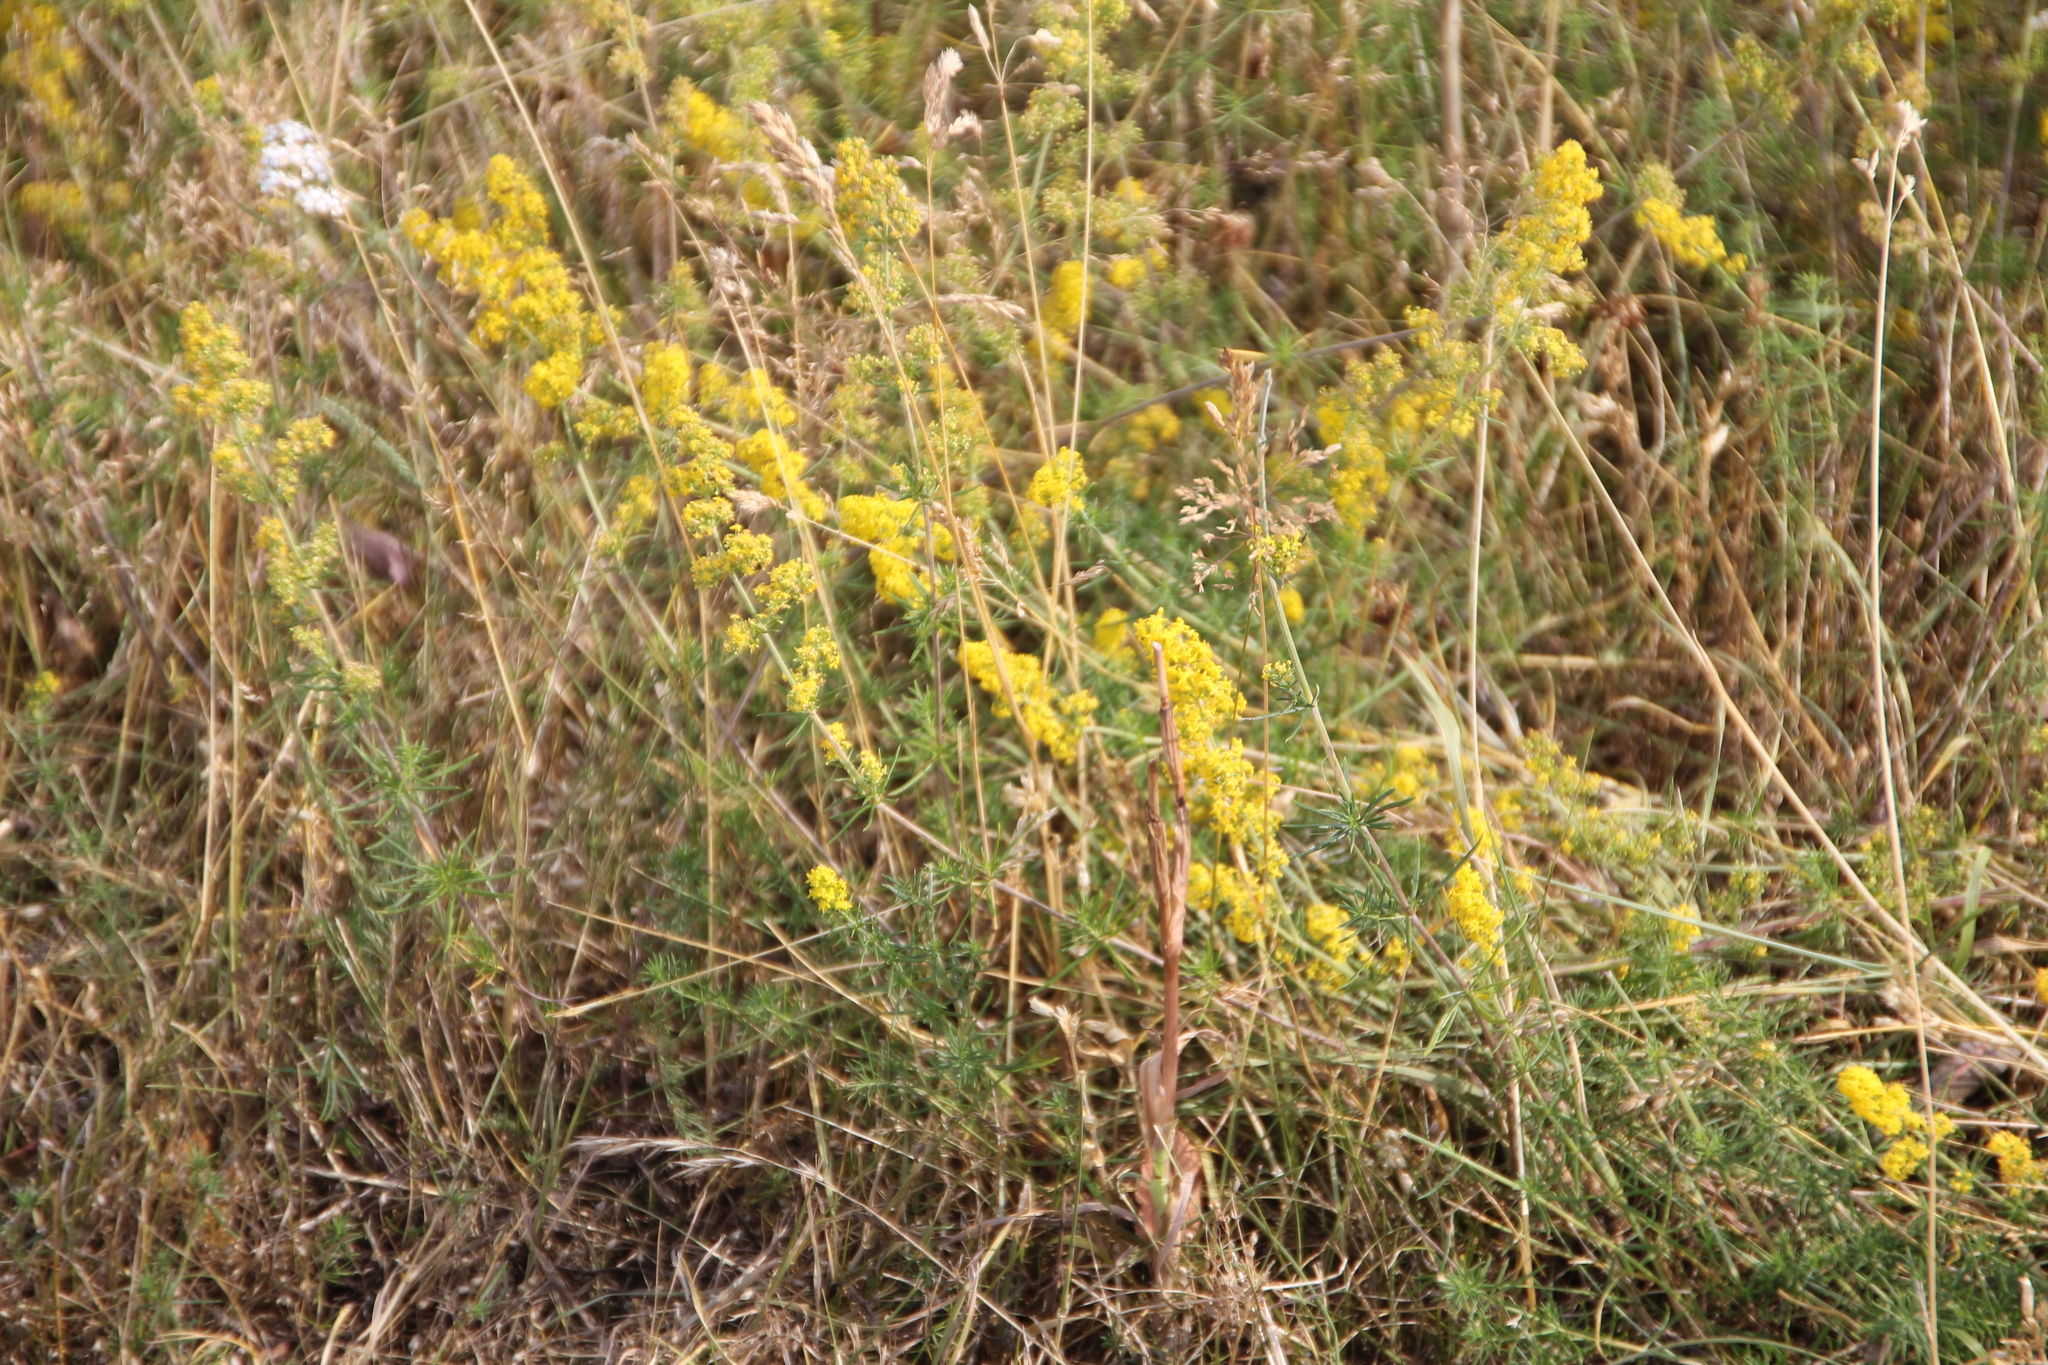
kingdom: Plantae
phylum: Tracheophyta
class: Magnoliopsida
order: Gentianales
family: Rubiaceae
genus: Galium
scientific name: Galium verum
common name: Lady's bedstraw
